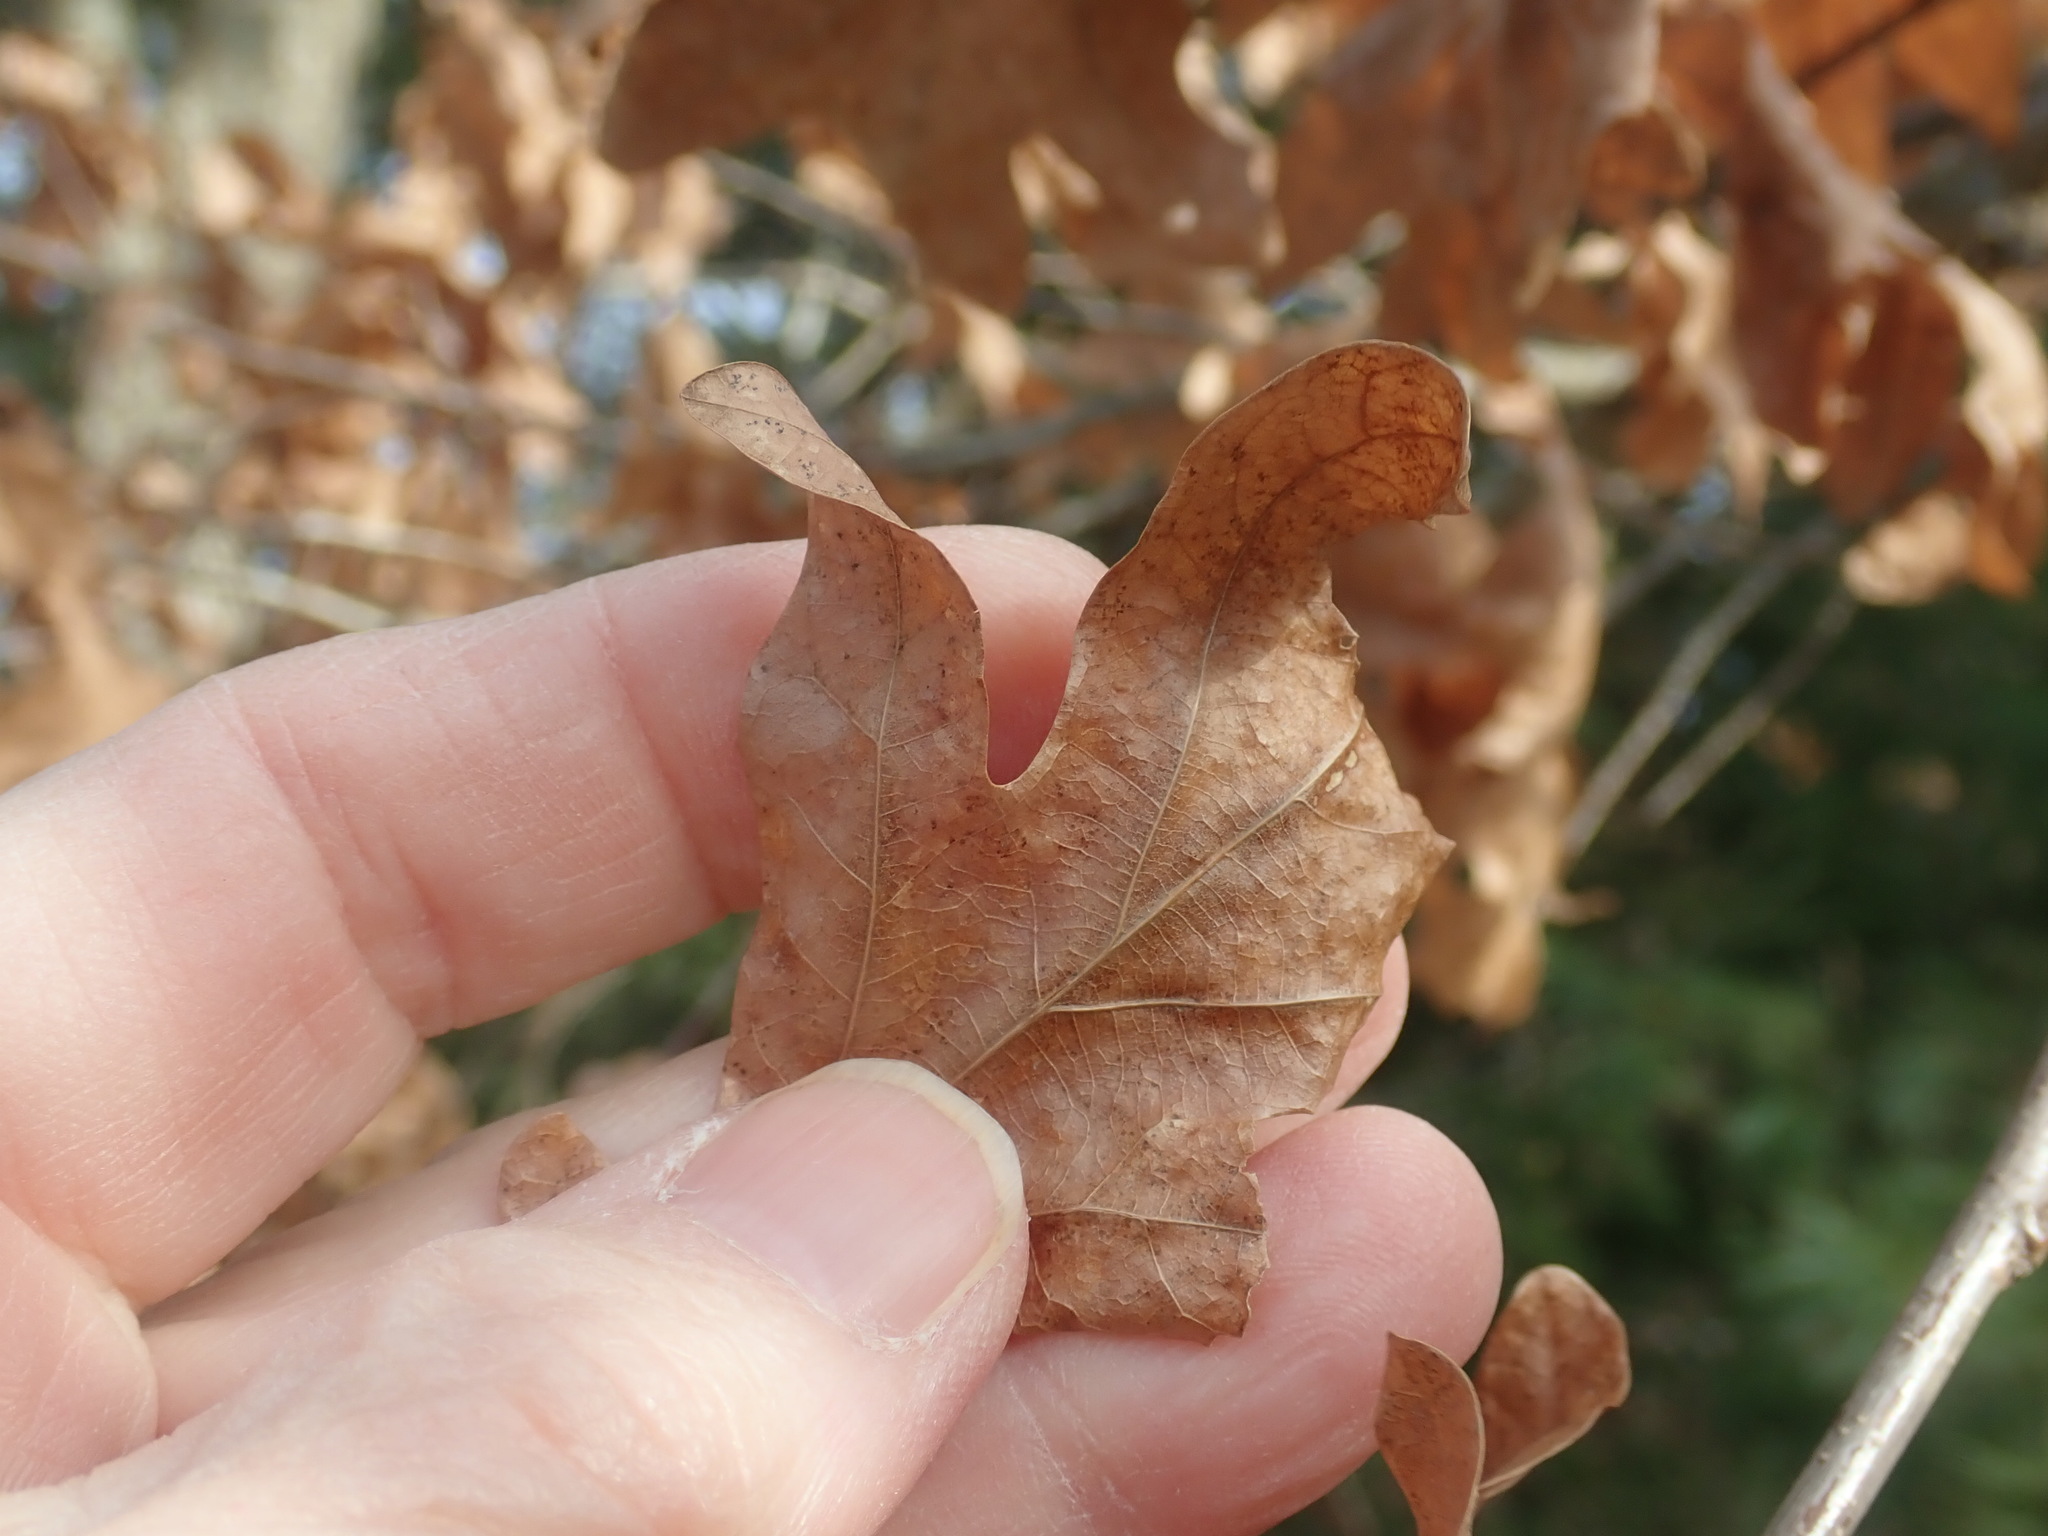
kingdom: Plantae
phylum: Tracheophyta
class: Magnoliopsida
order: Fagales
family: Fagaceae
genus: Quercus
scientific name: Quercus alba
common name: White oak
